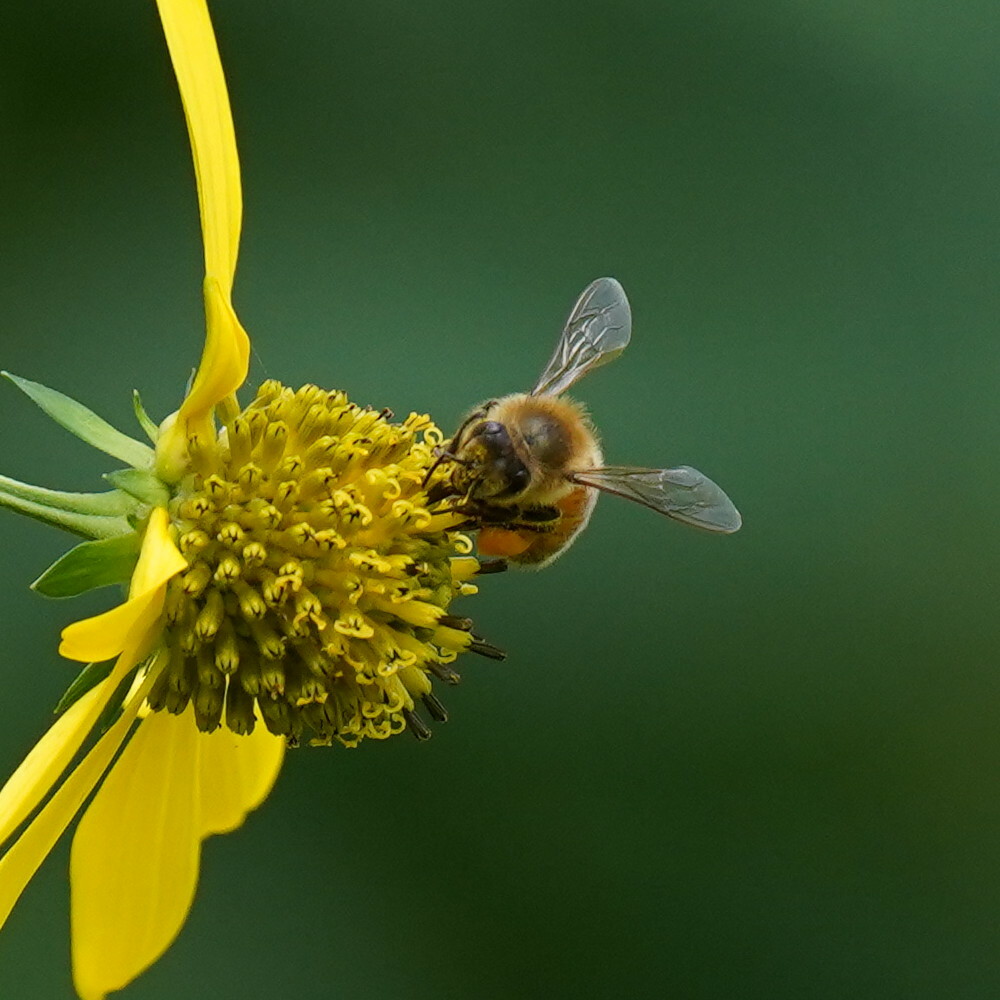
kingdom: Animalia
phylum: Arthropoda
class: Insecta
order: Hymenoptera
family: Apidae
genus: Apis
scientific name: Apis mellifera
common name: Honey bee
